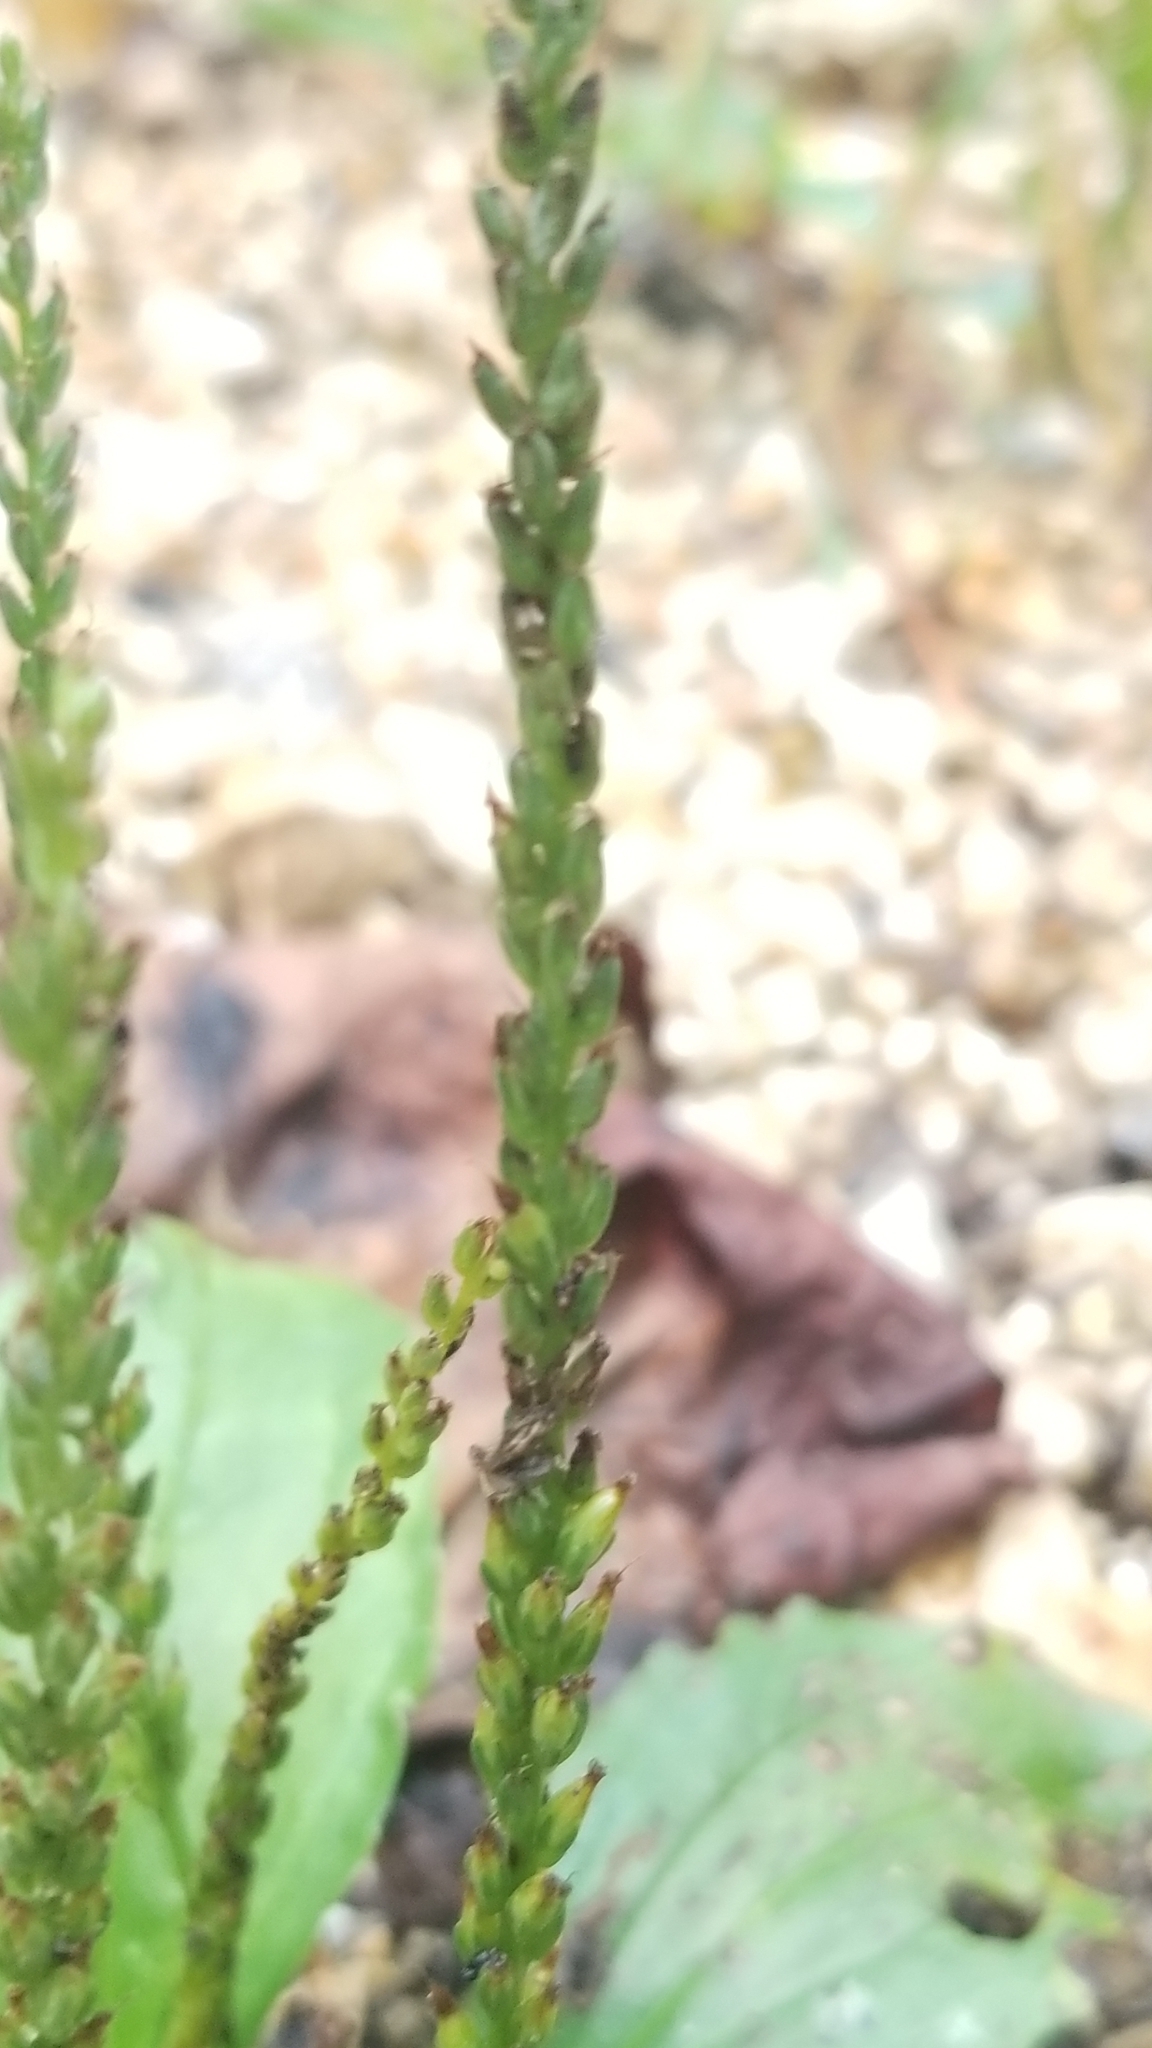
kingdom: Plantae
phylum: Tracheophyta
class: Magnoliopsida
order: Lamiales
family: Plantaginaceae
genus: Plantago
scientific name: Plantago rugelii
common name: American plantain
